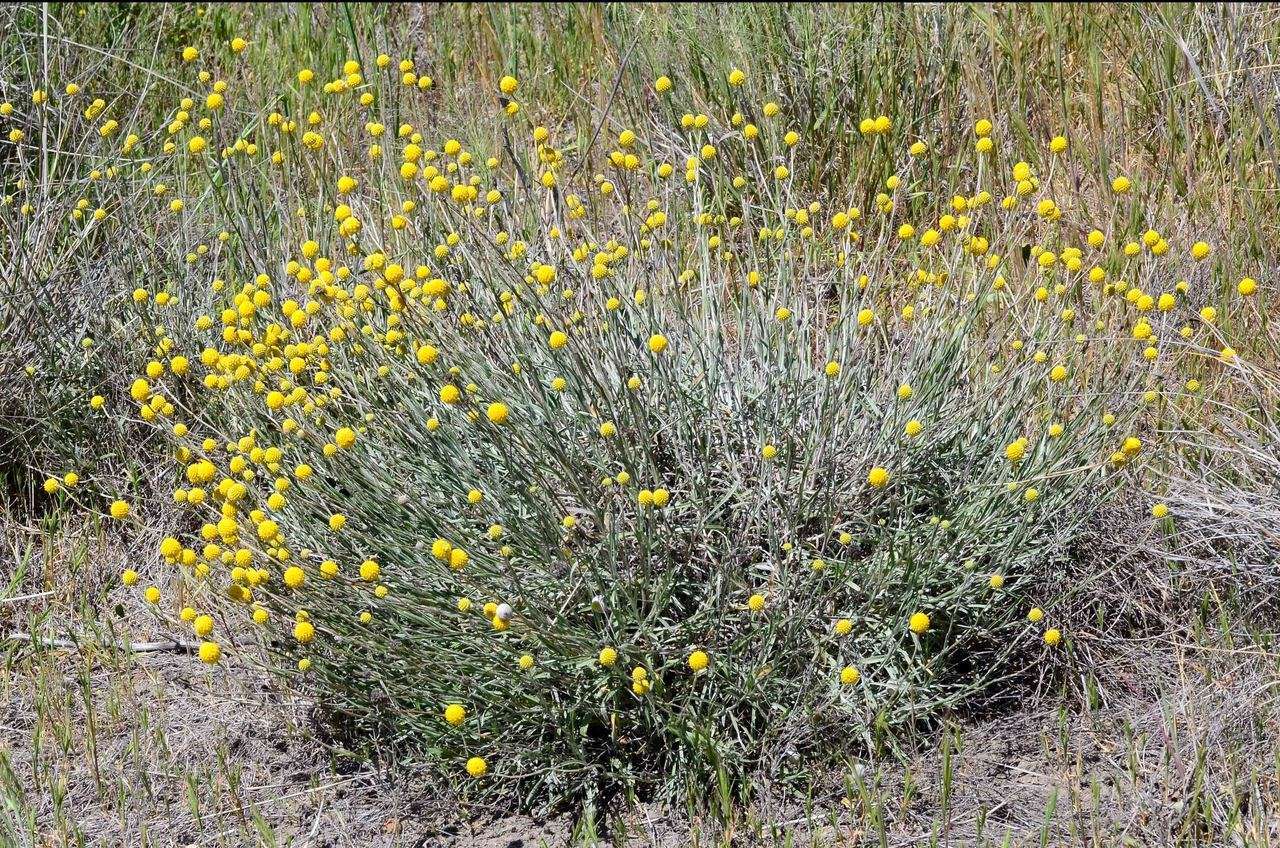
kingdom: Plantae
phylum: Tracheophyta
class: Magnoliopsida
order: Asterales
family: Asteraceae
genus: Pycnosorus
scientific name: Pycnosorus chrysanthus
